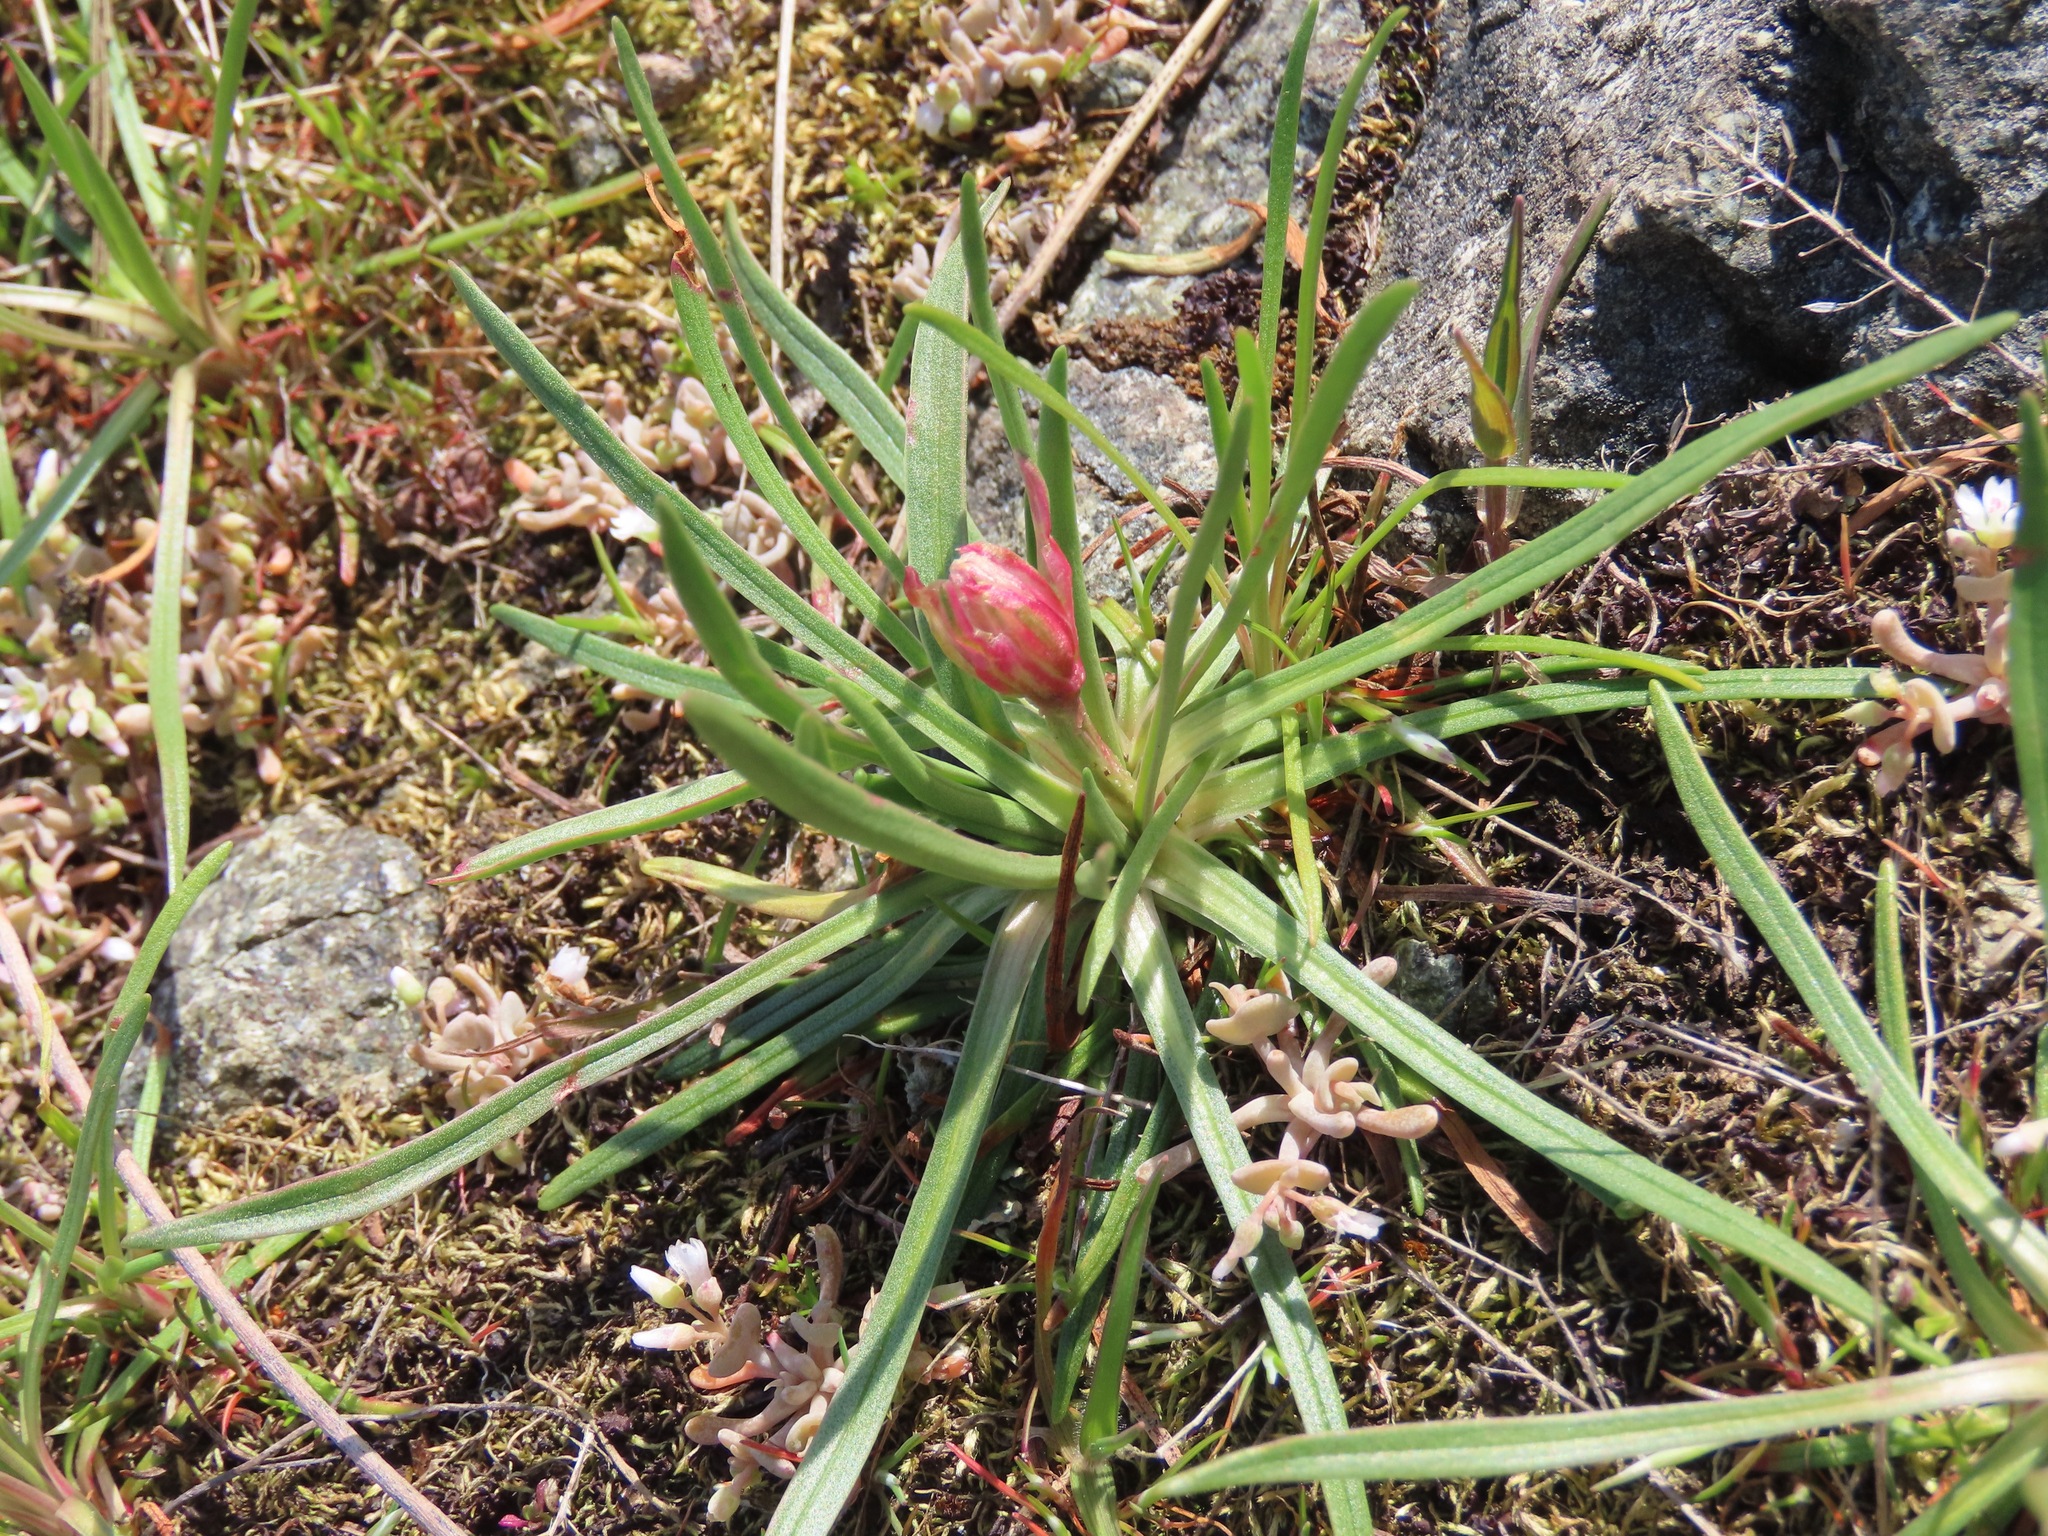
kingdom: Plantae
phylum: Tracheophyta
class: Magnoliopsida
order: Caryophyllales
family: Plumbaginaceae
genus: Armeria
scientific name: Armeria maritima
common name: Thrift
